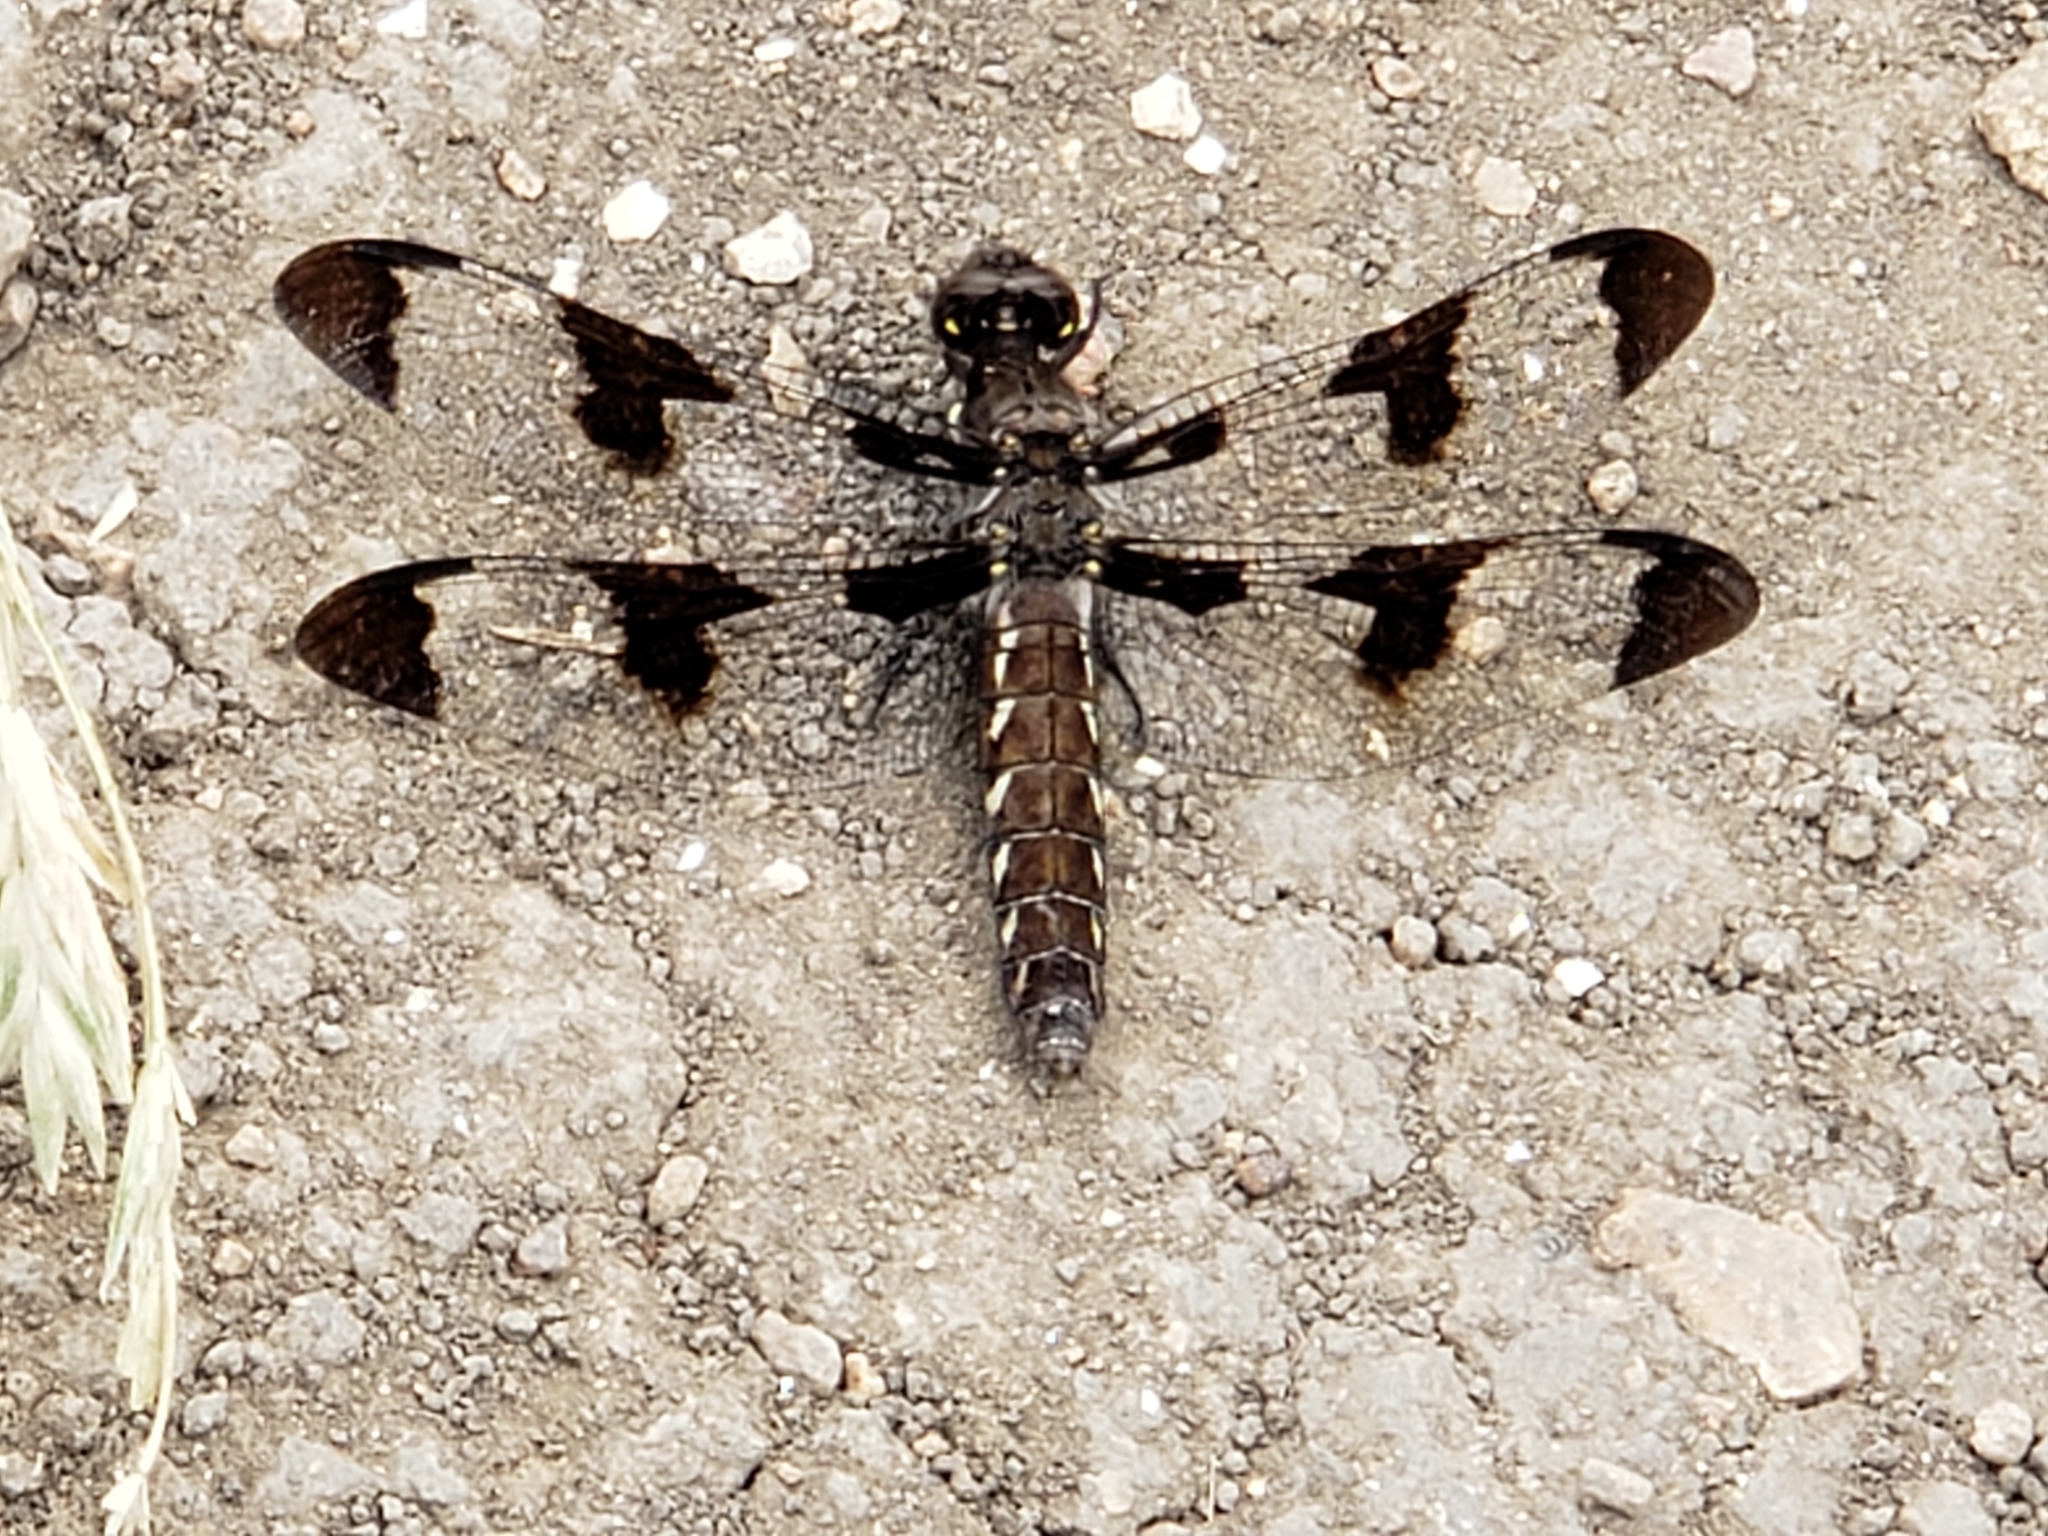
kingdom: Animalia
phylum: Arthropoda
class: Insecta
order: Odonata
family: Libellulidae
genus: Plathemis
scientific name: Plathemis lydia
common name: Common whitetail
